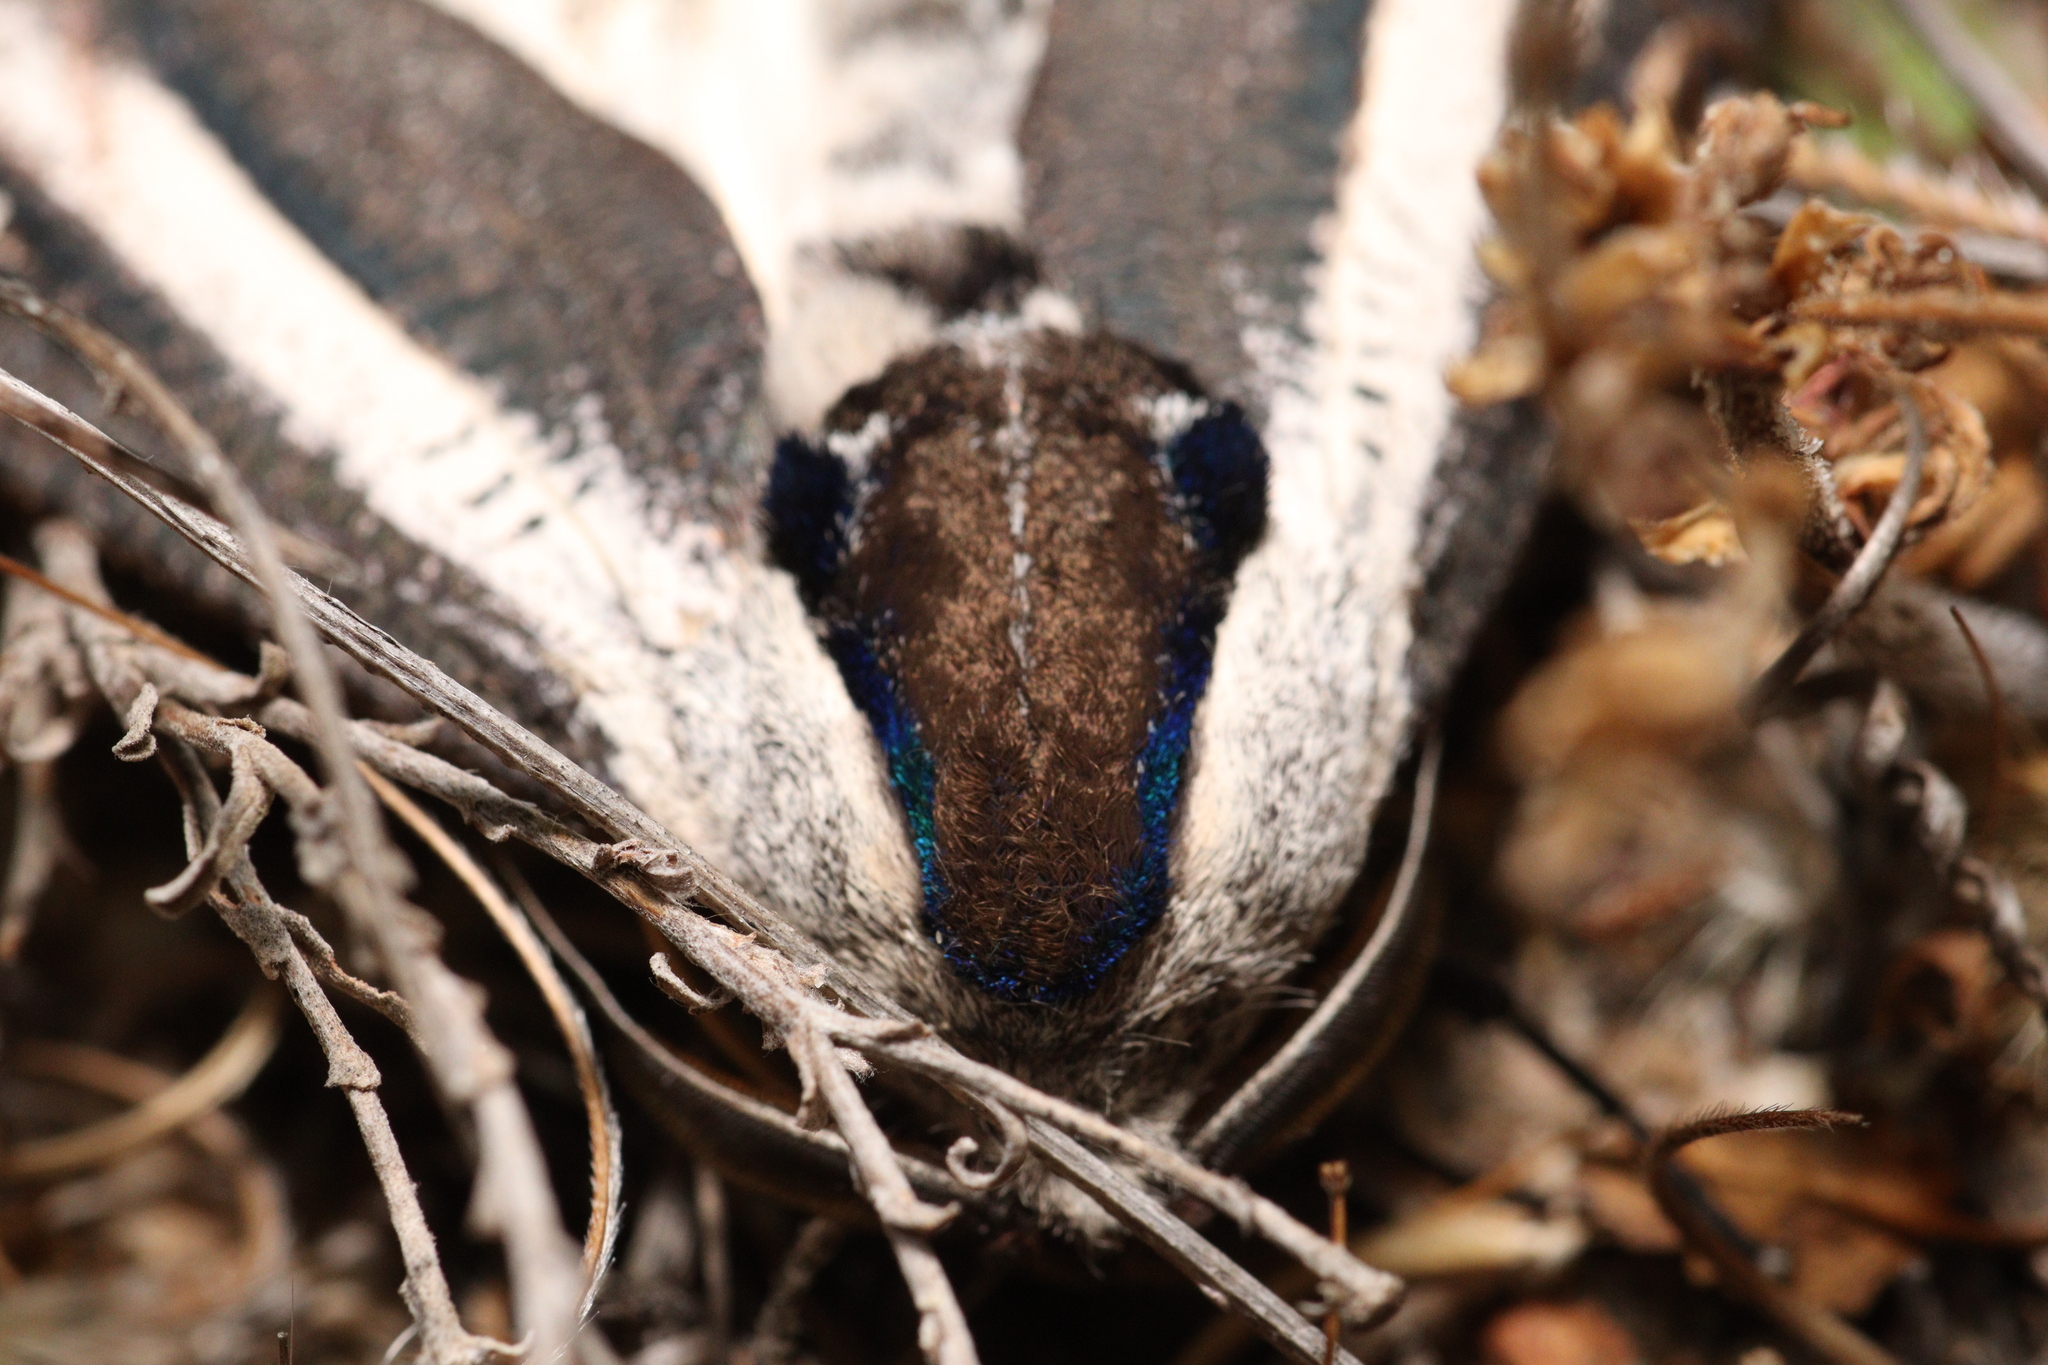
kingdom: Animalia
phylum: Arthropoda
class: Insecta
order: Lepidoptera
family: Cossidae
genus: Endoxyla
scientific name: Endoxyla leucomochla
